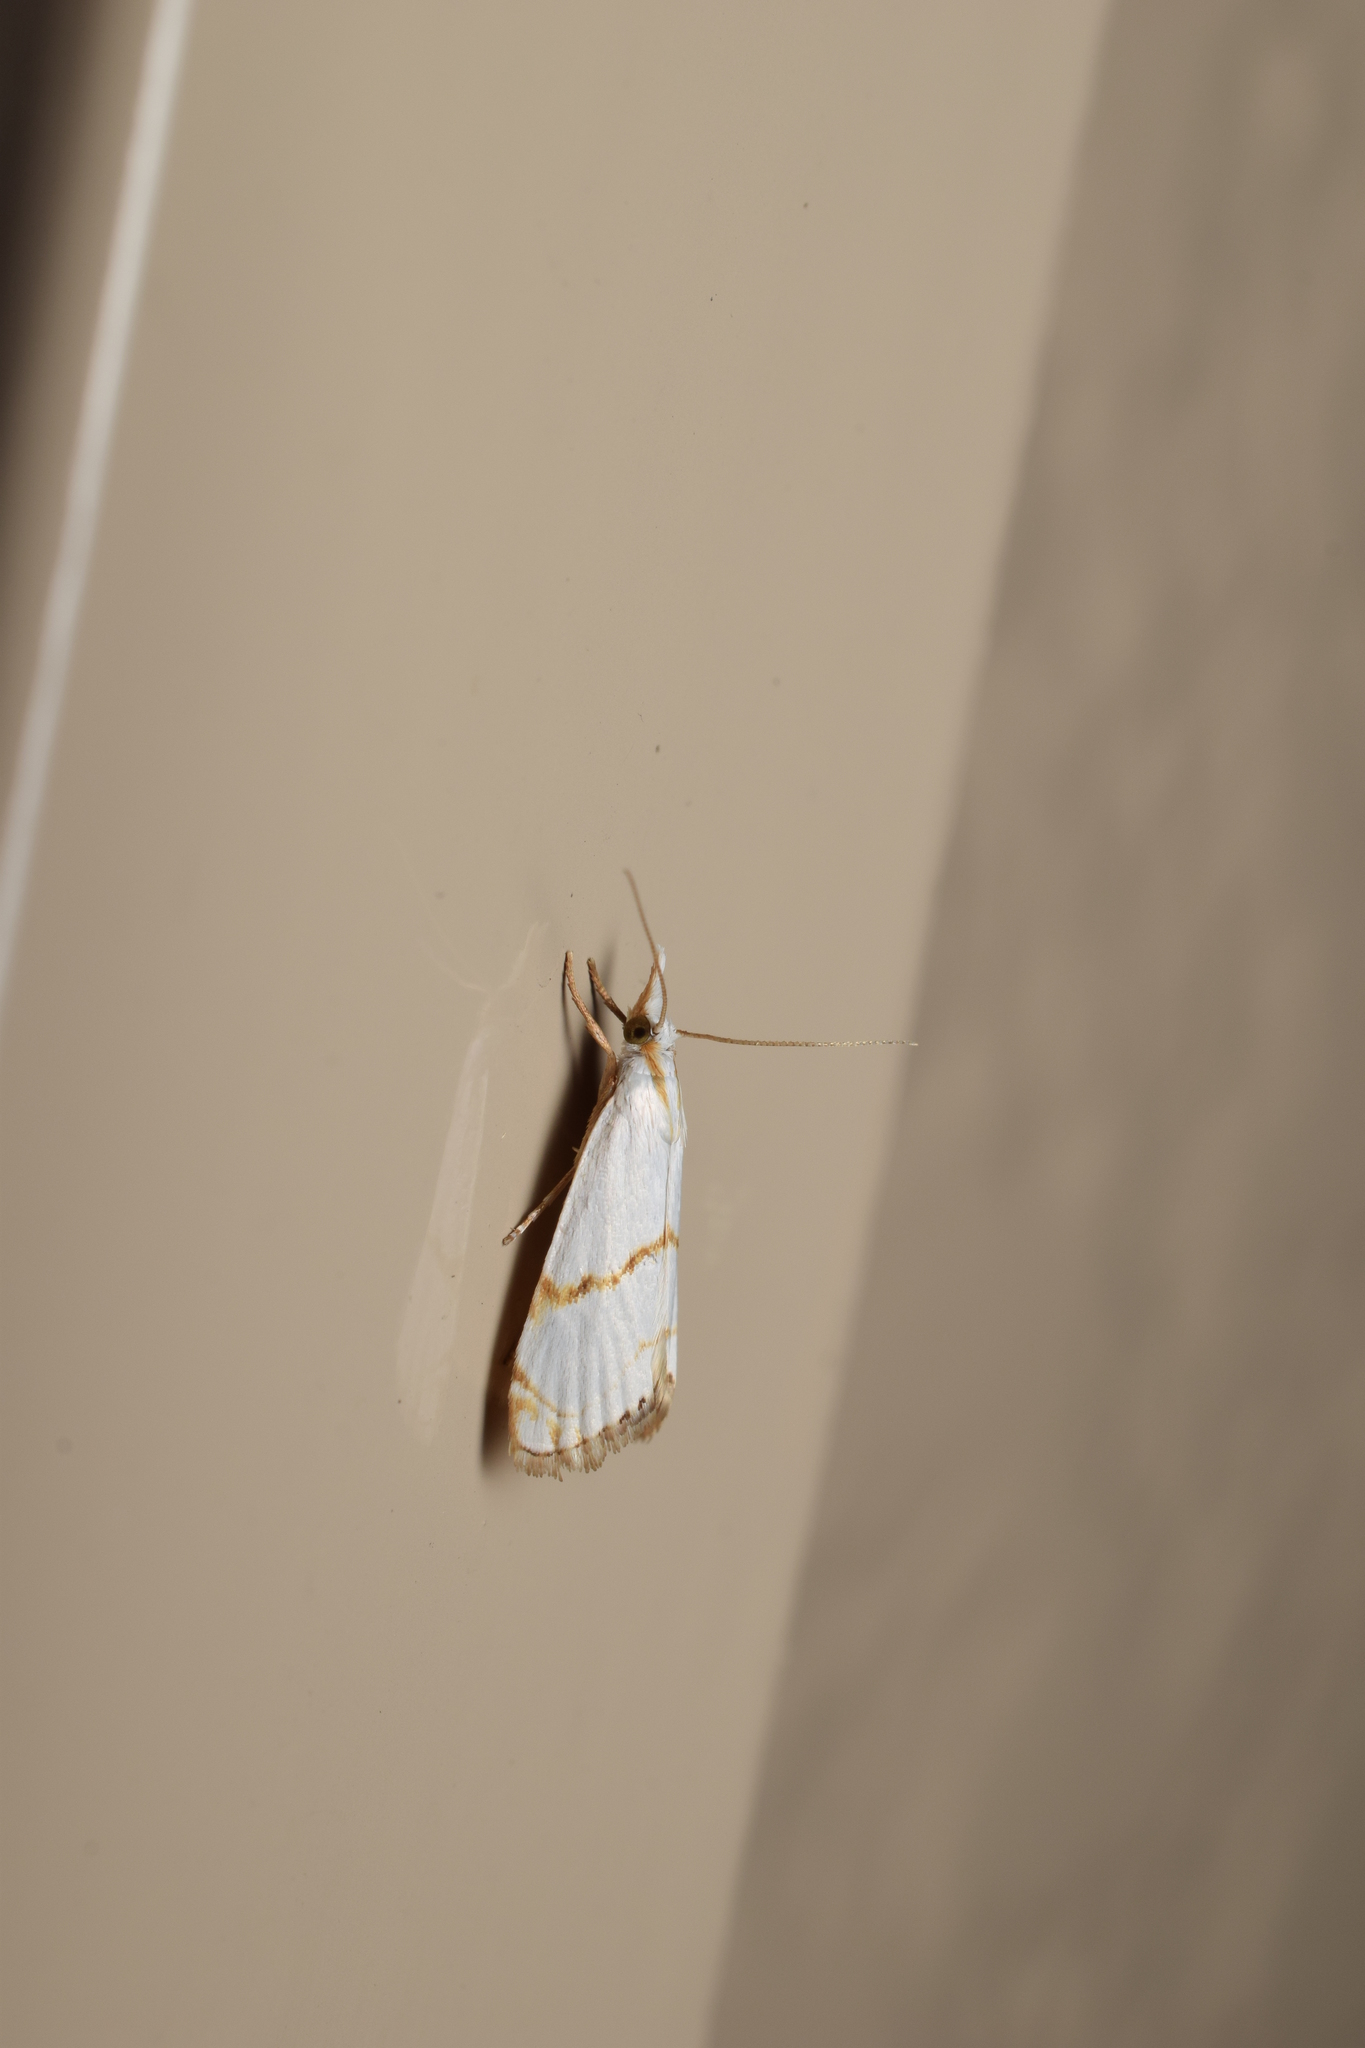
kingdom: Animalia
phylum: Arthropoda
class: Insecta
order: Lepidoptera
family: Crambidae
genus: Pseudargyria
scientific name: Pseudargyria interruptella
